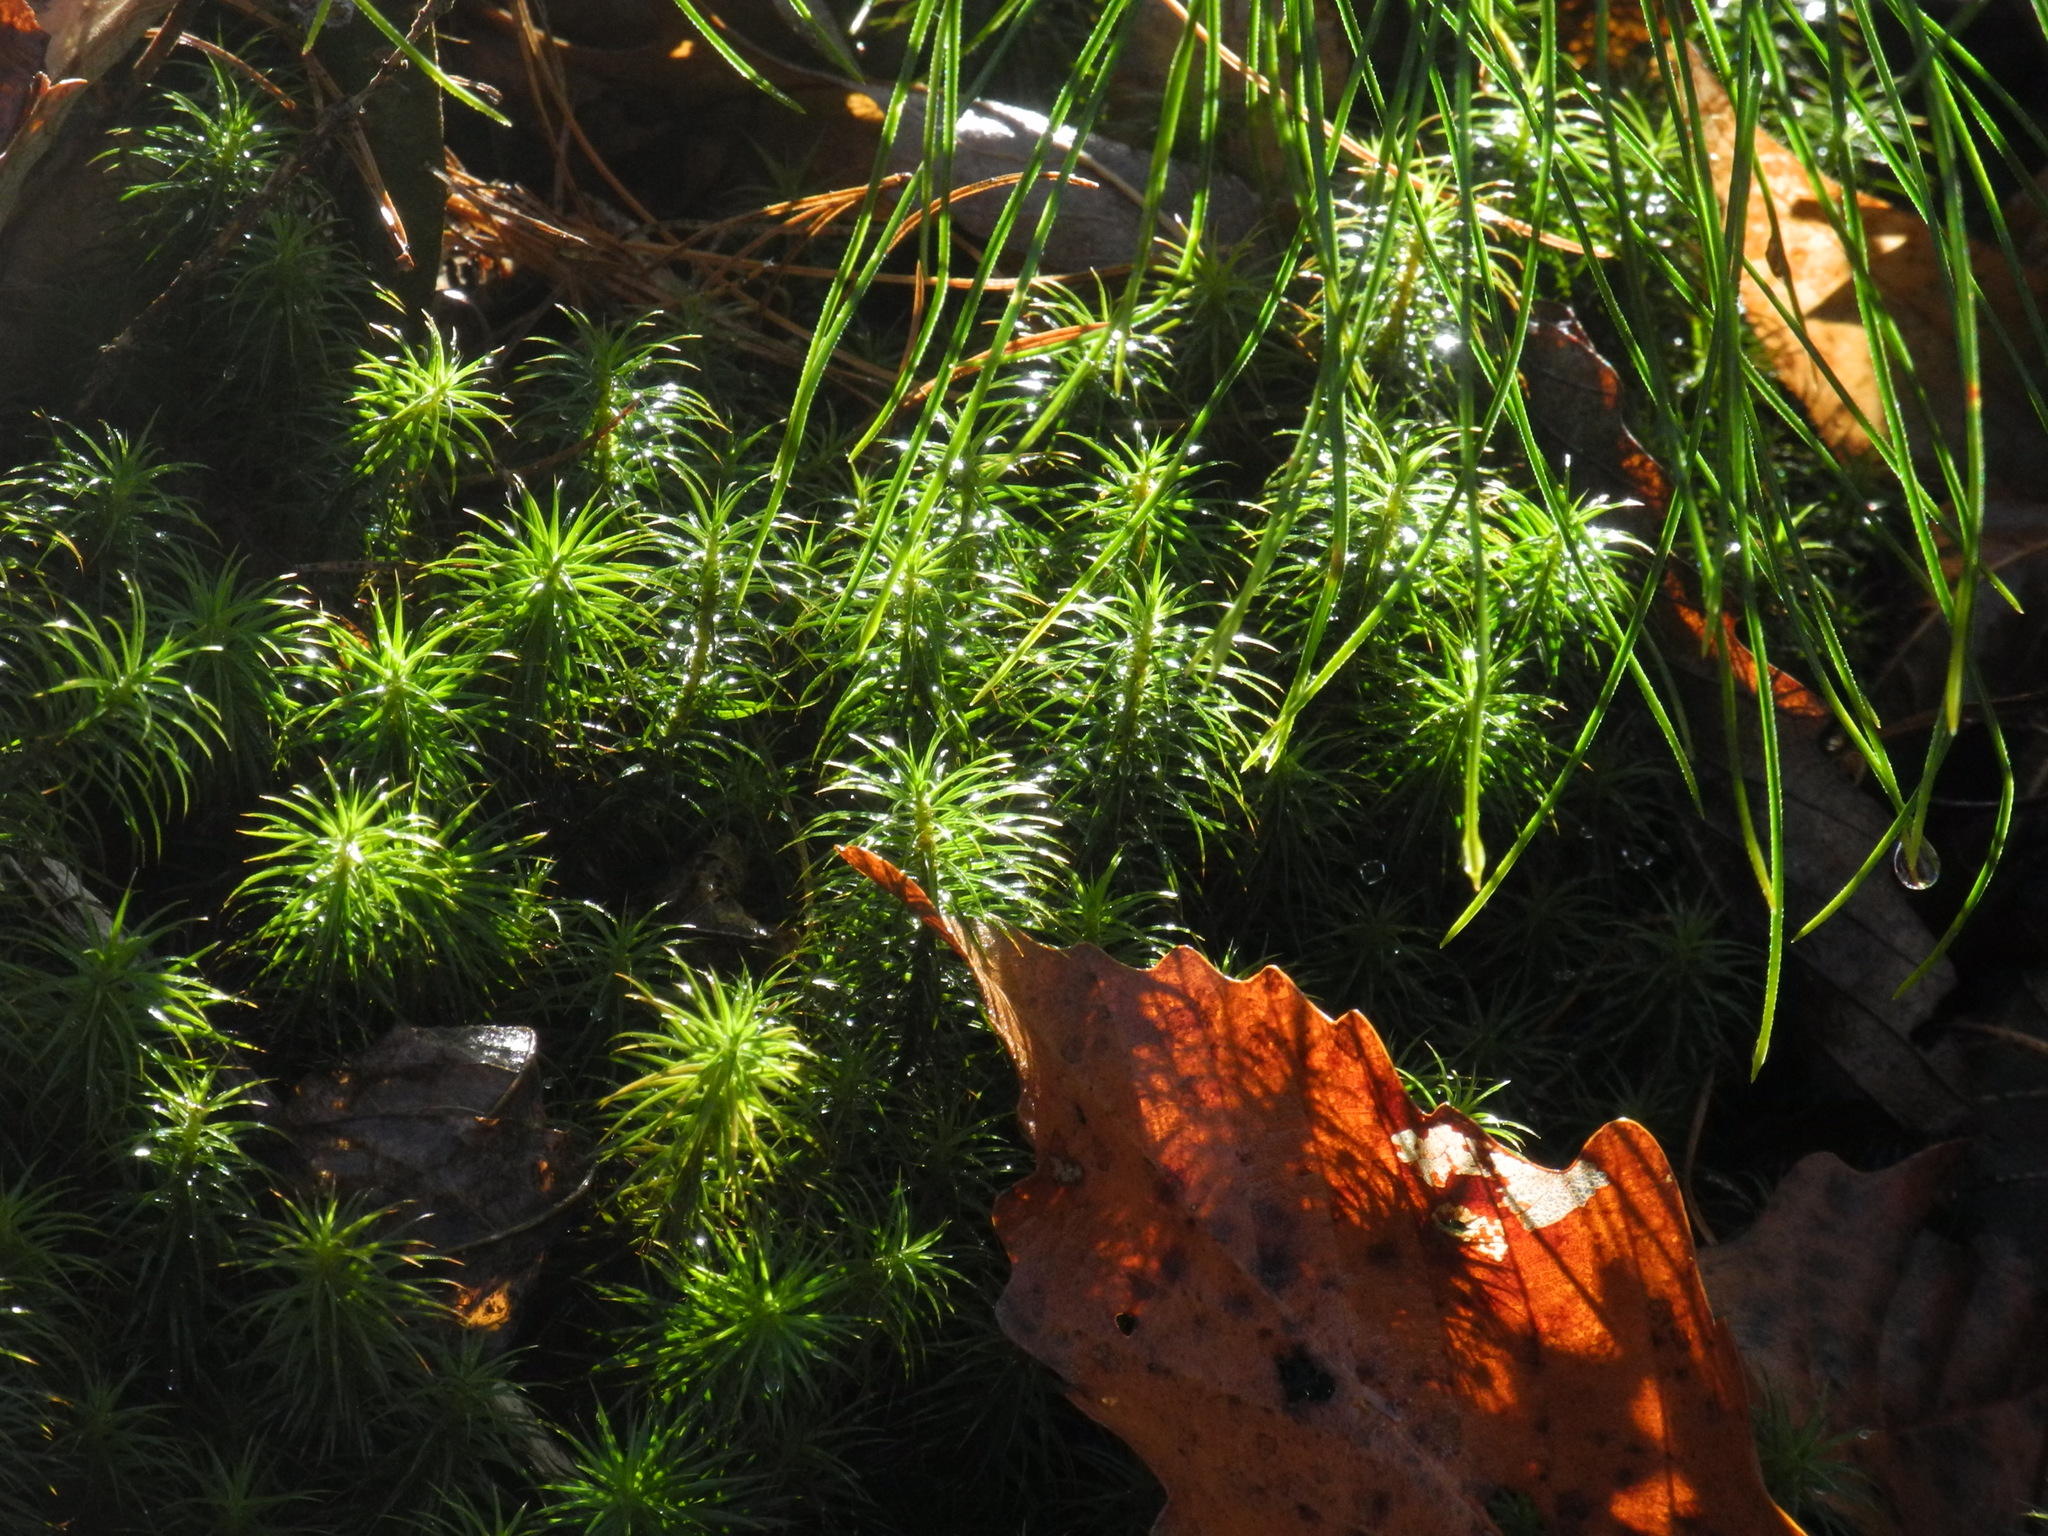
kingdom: Plantae
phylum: Bryophyta
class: Polytrichopsida
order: Polytrichales
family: Polytrichaceae
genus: Polytrichum
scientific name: Polytrichum commune
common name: Common haircap
